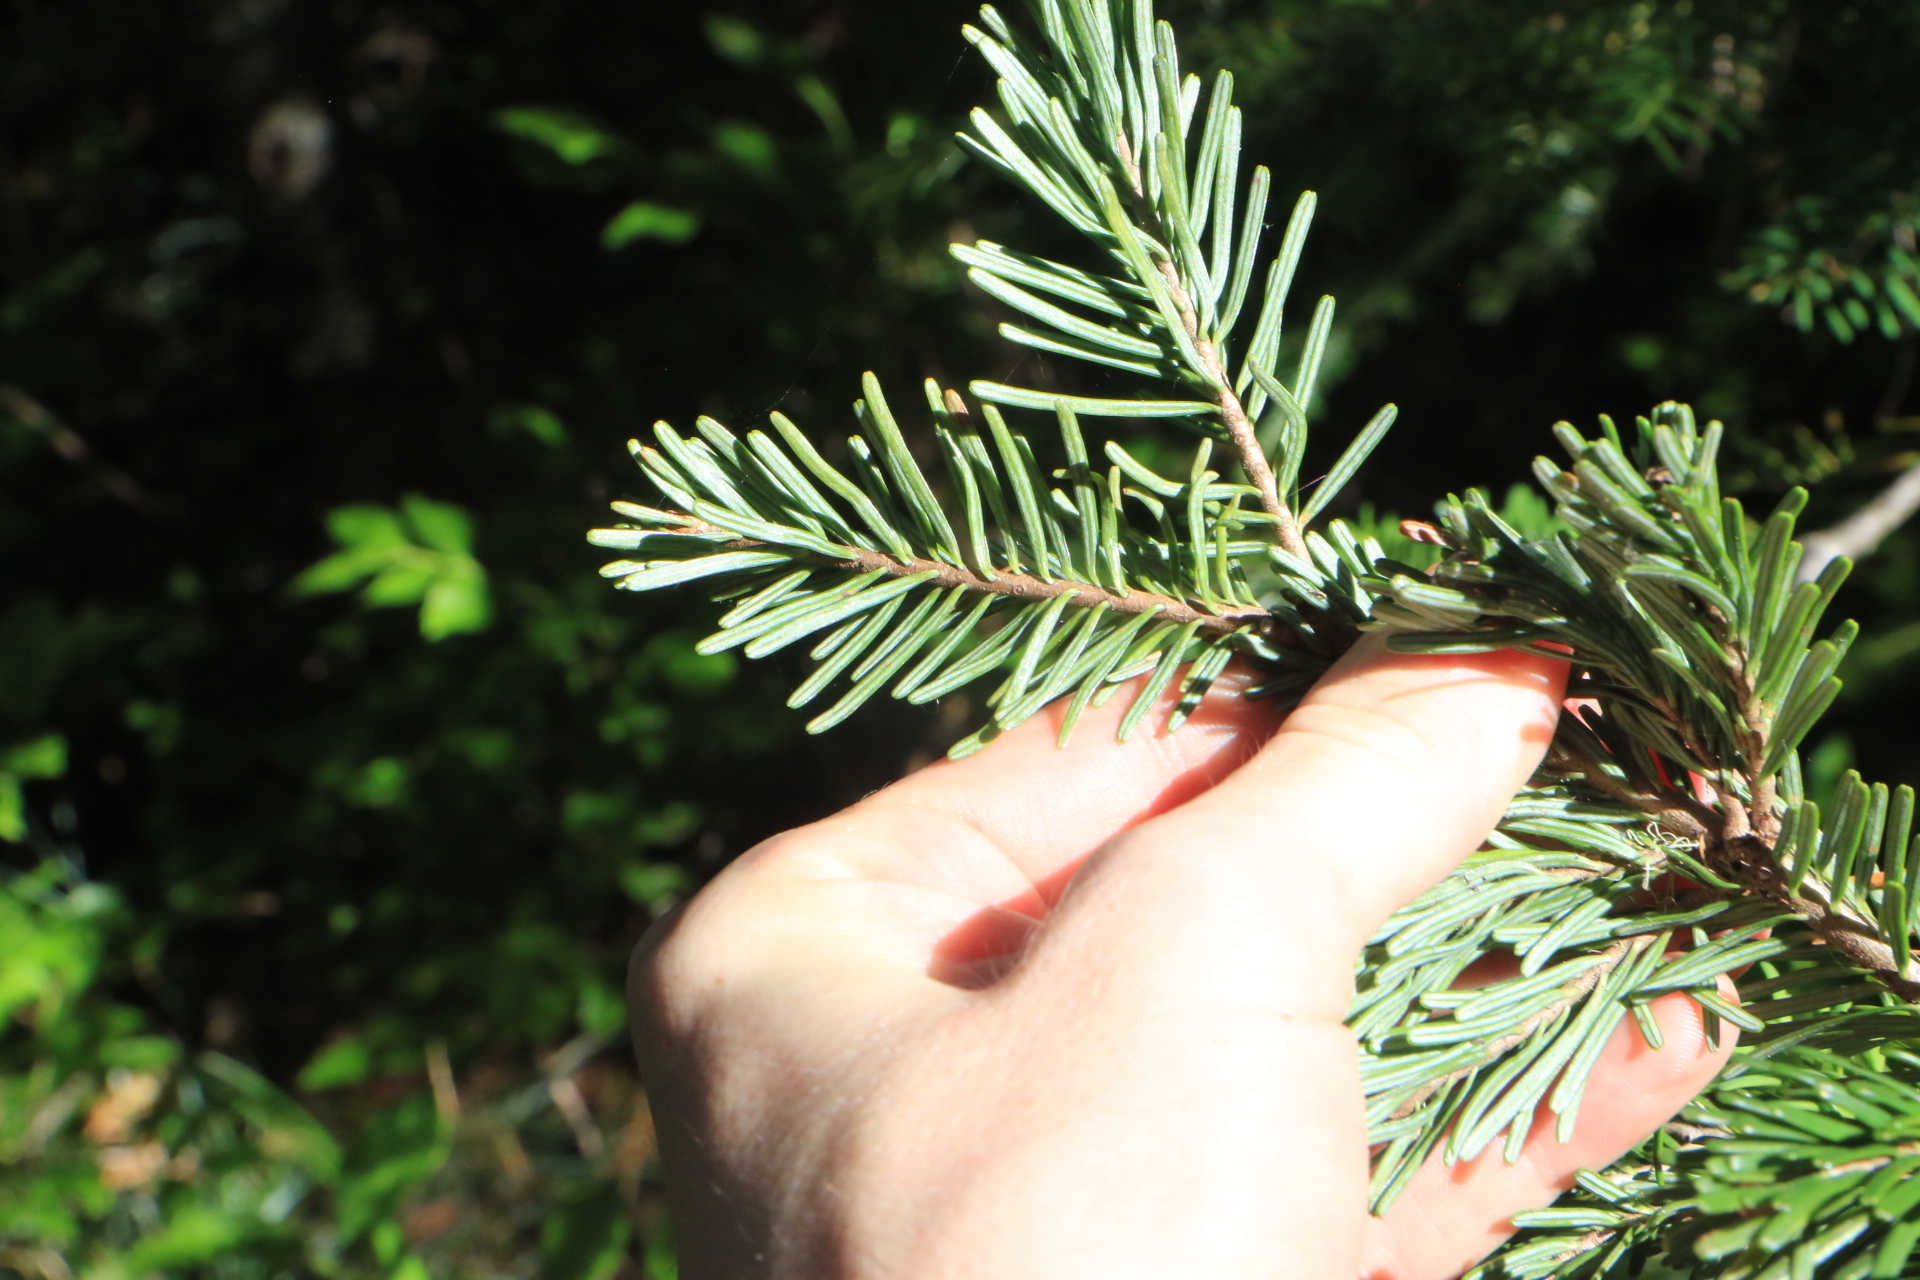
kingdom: Plantae
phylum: Tracheophyta
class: Pinopsida
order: Pinales
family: Pinaceae
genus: Abies
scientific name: Abies amabilis
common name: Pacific silver fir
